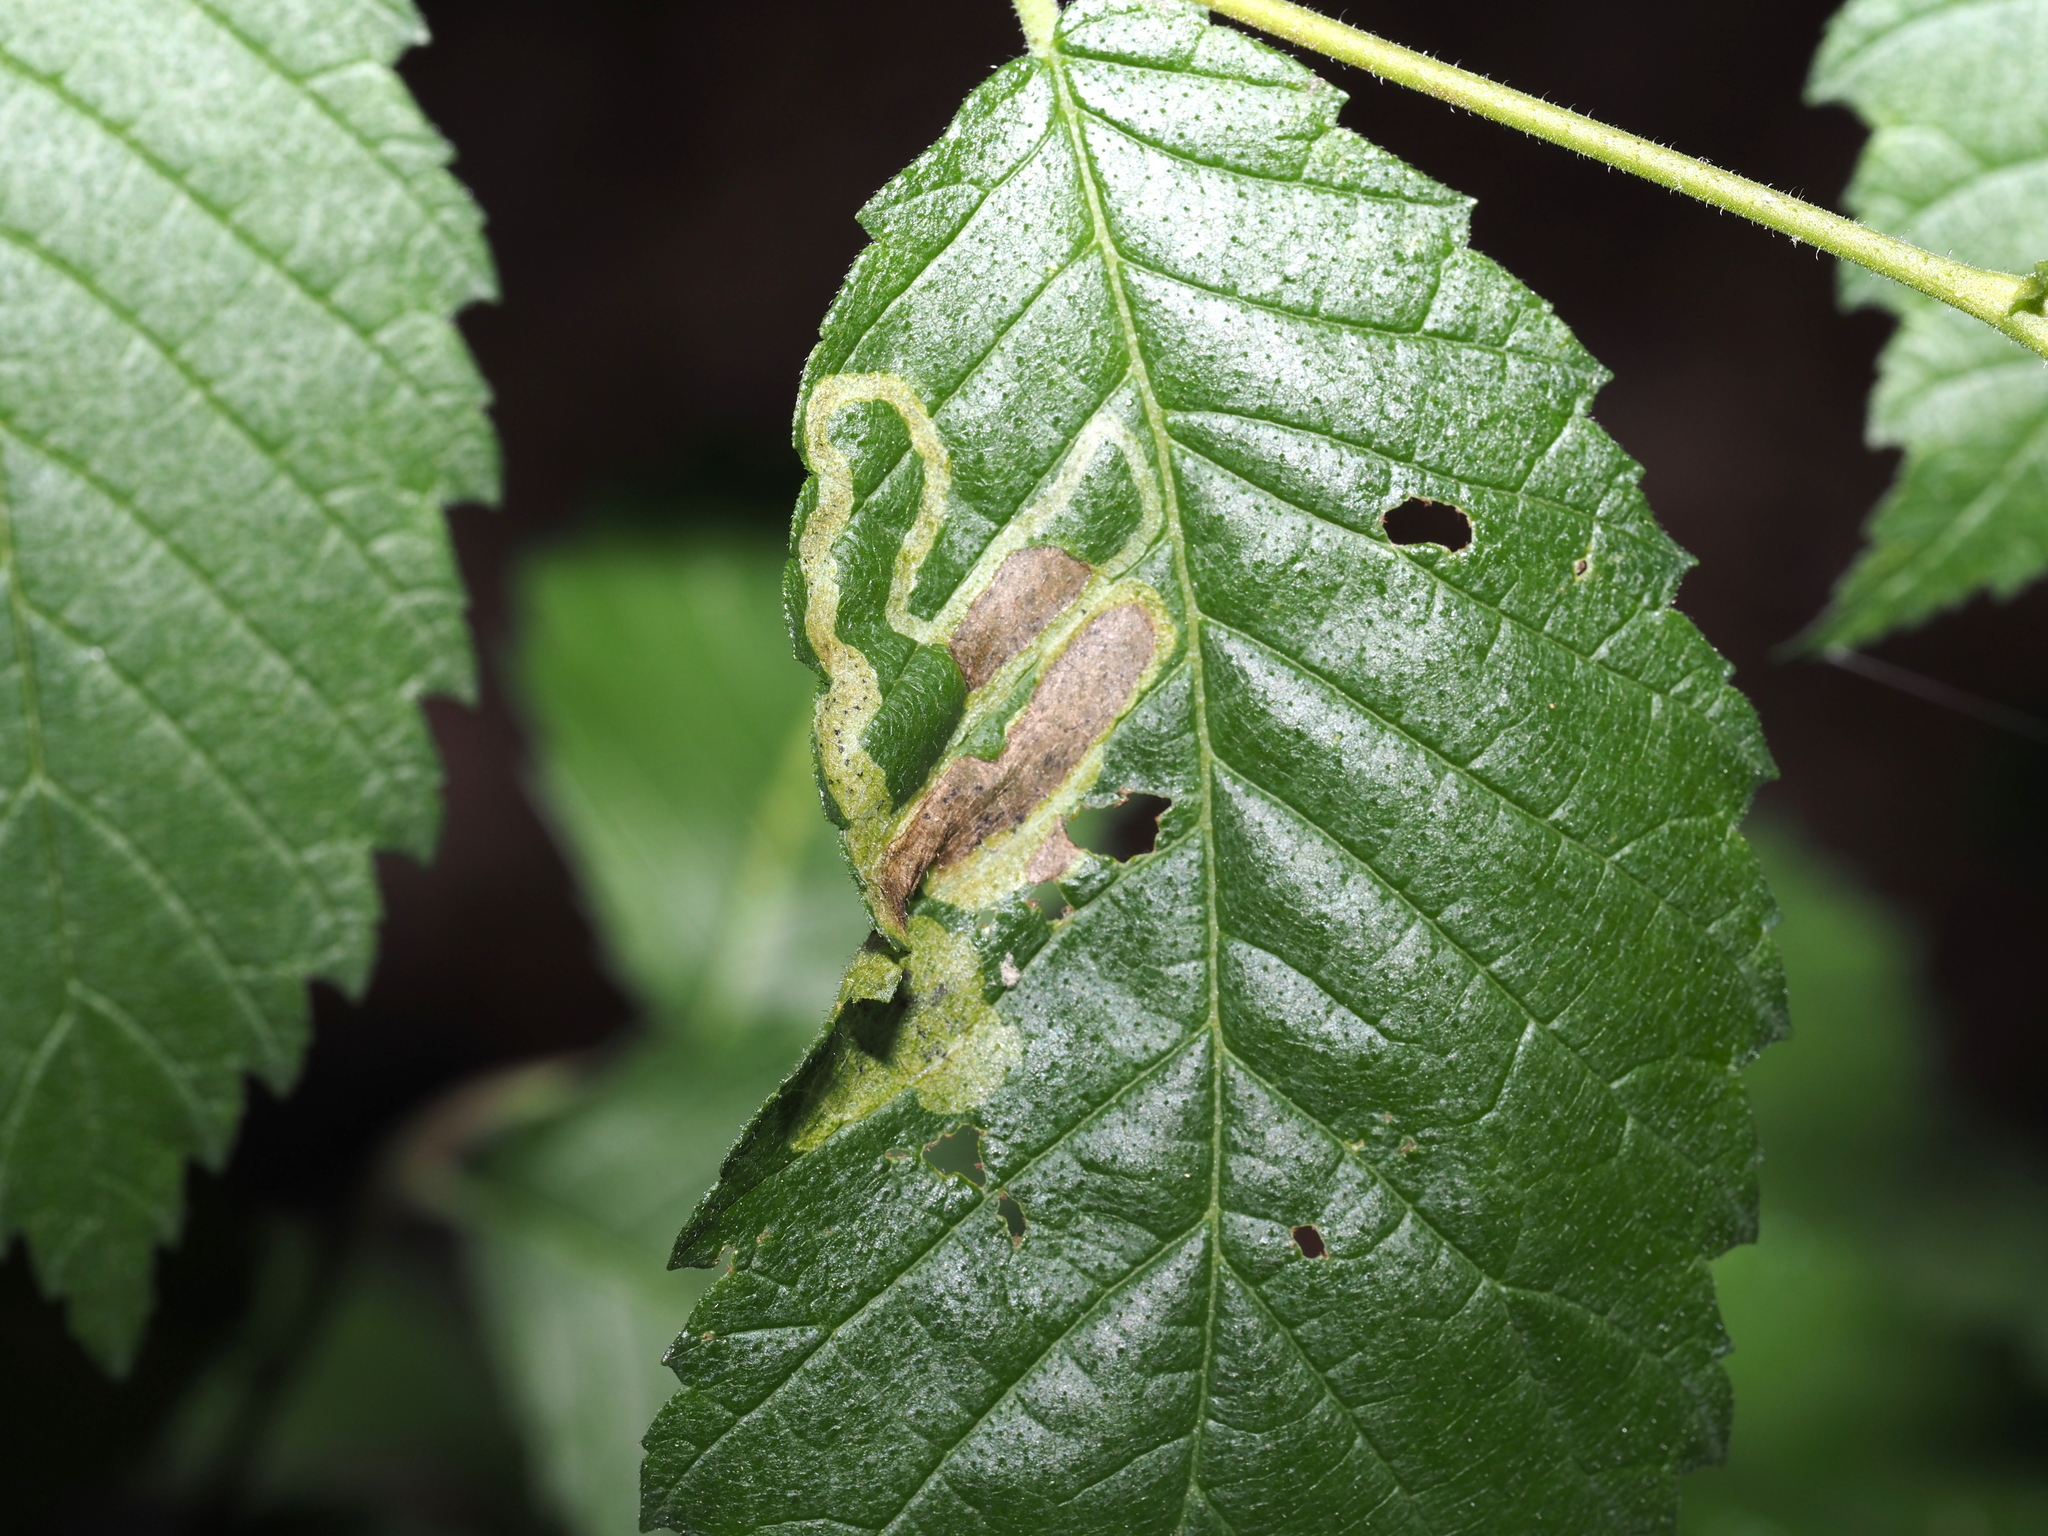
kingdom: Animalia
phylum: Arthropoda
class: Insecta
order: Diptera
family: Agromyzidae
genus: Agromyza
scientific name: Agromyza aristata
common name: Elm agromyzid leafminer
